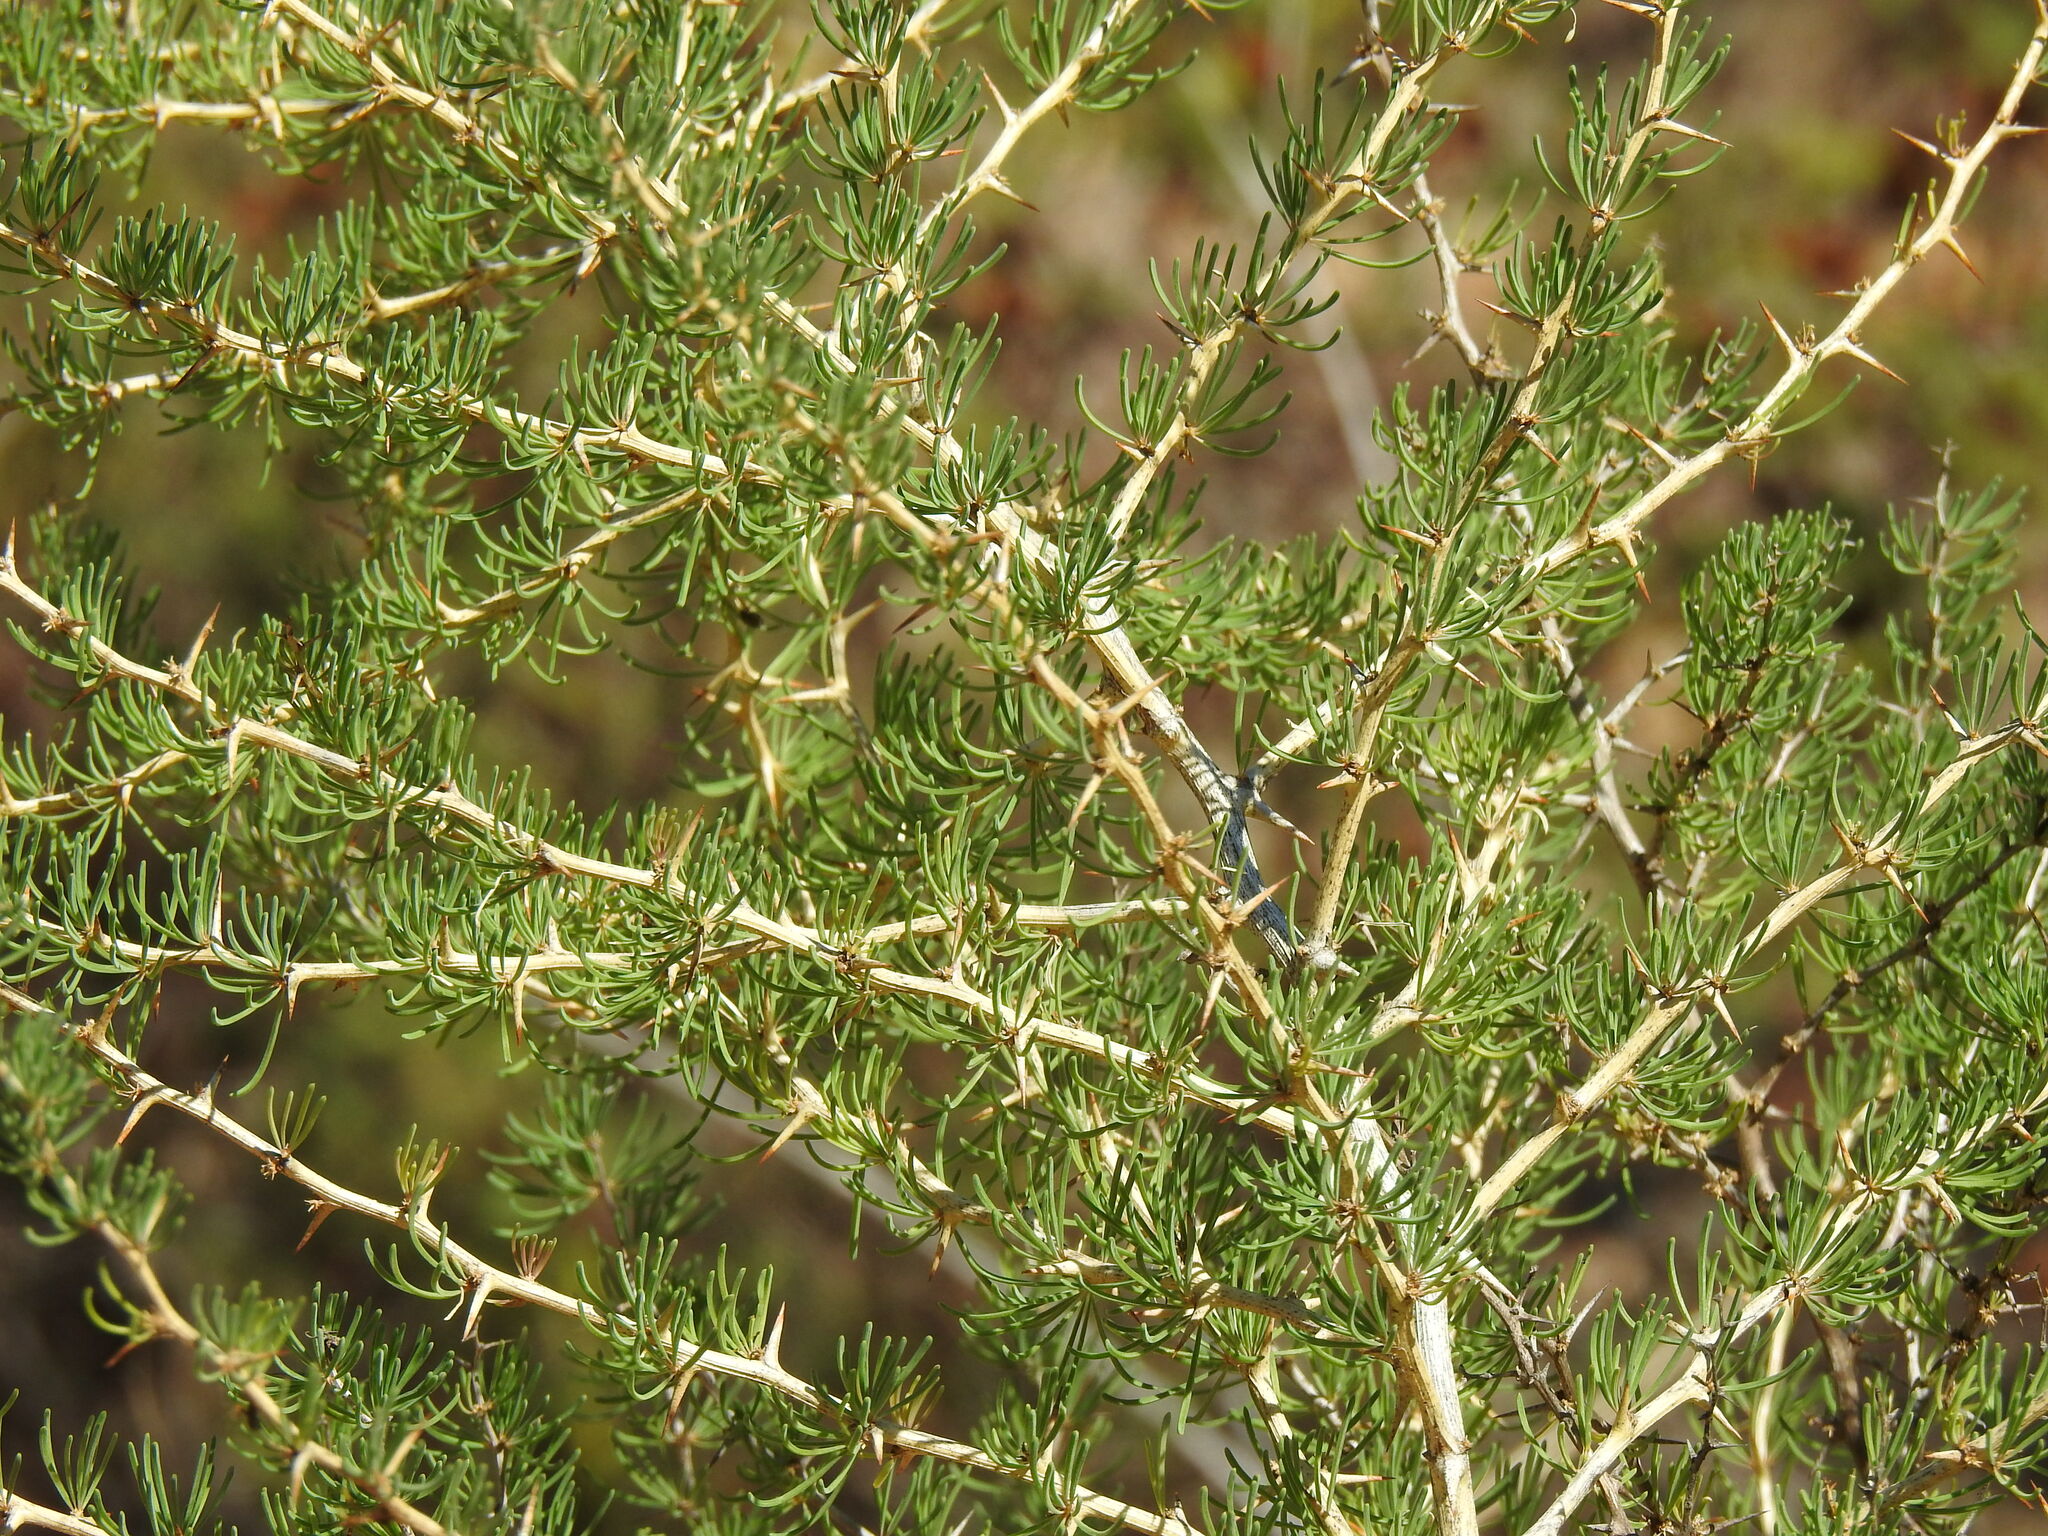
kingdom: Plantae
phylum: Tracheophyta
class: Liliopsida
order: Asparagales
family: Asparagaceae
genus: Asparagus
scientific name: Asparagus albus
